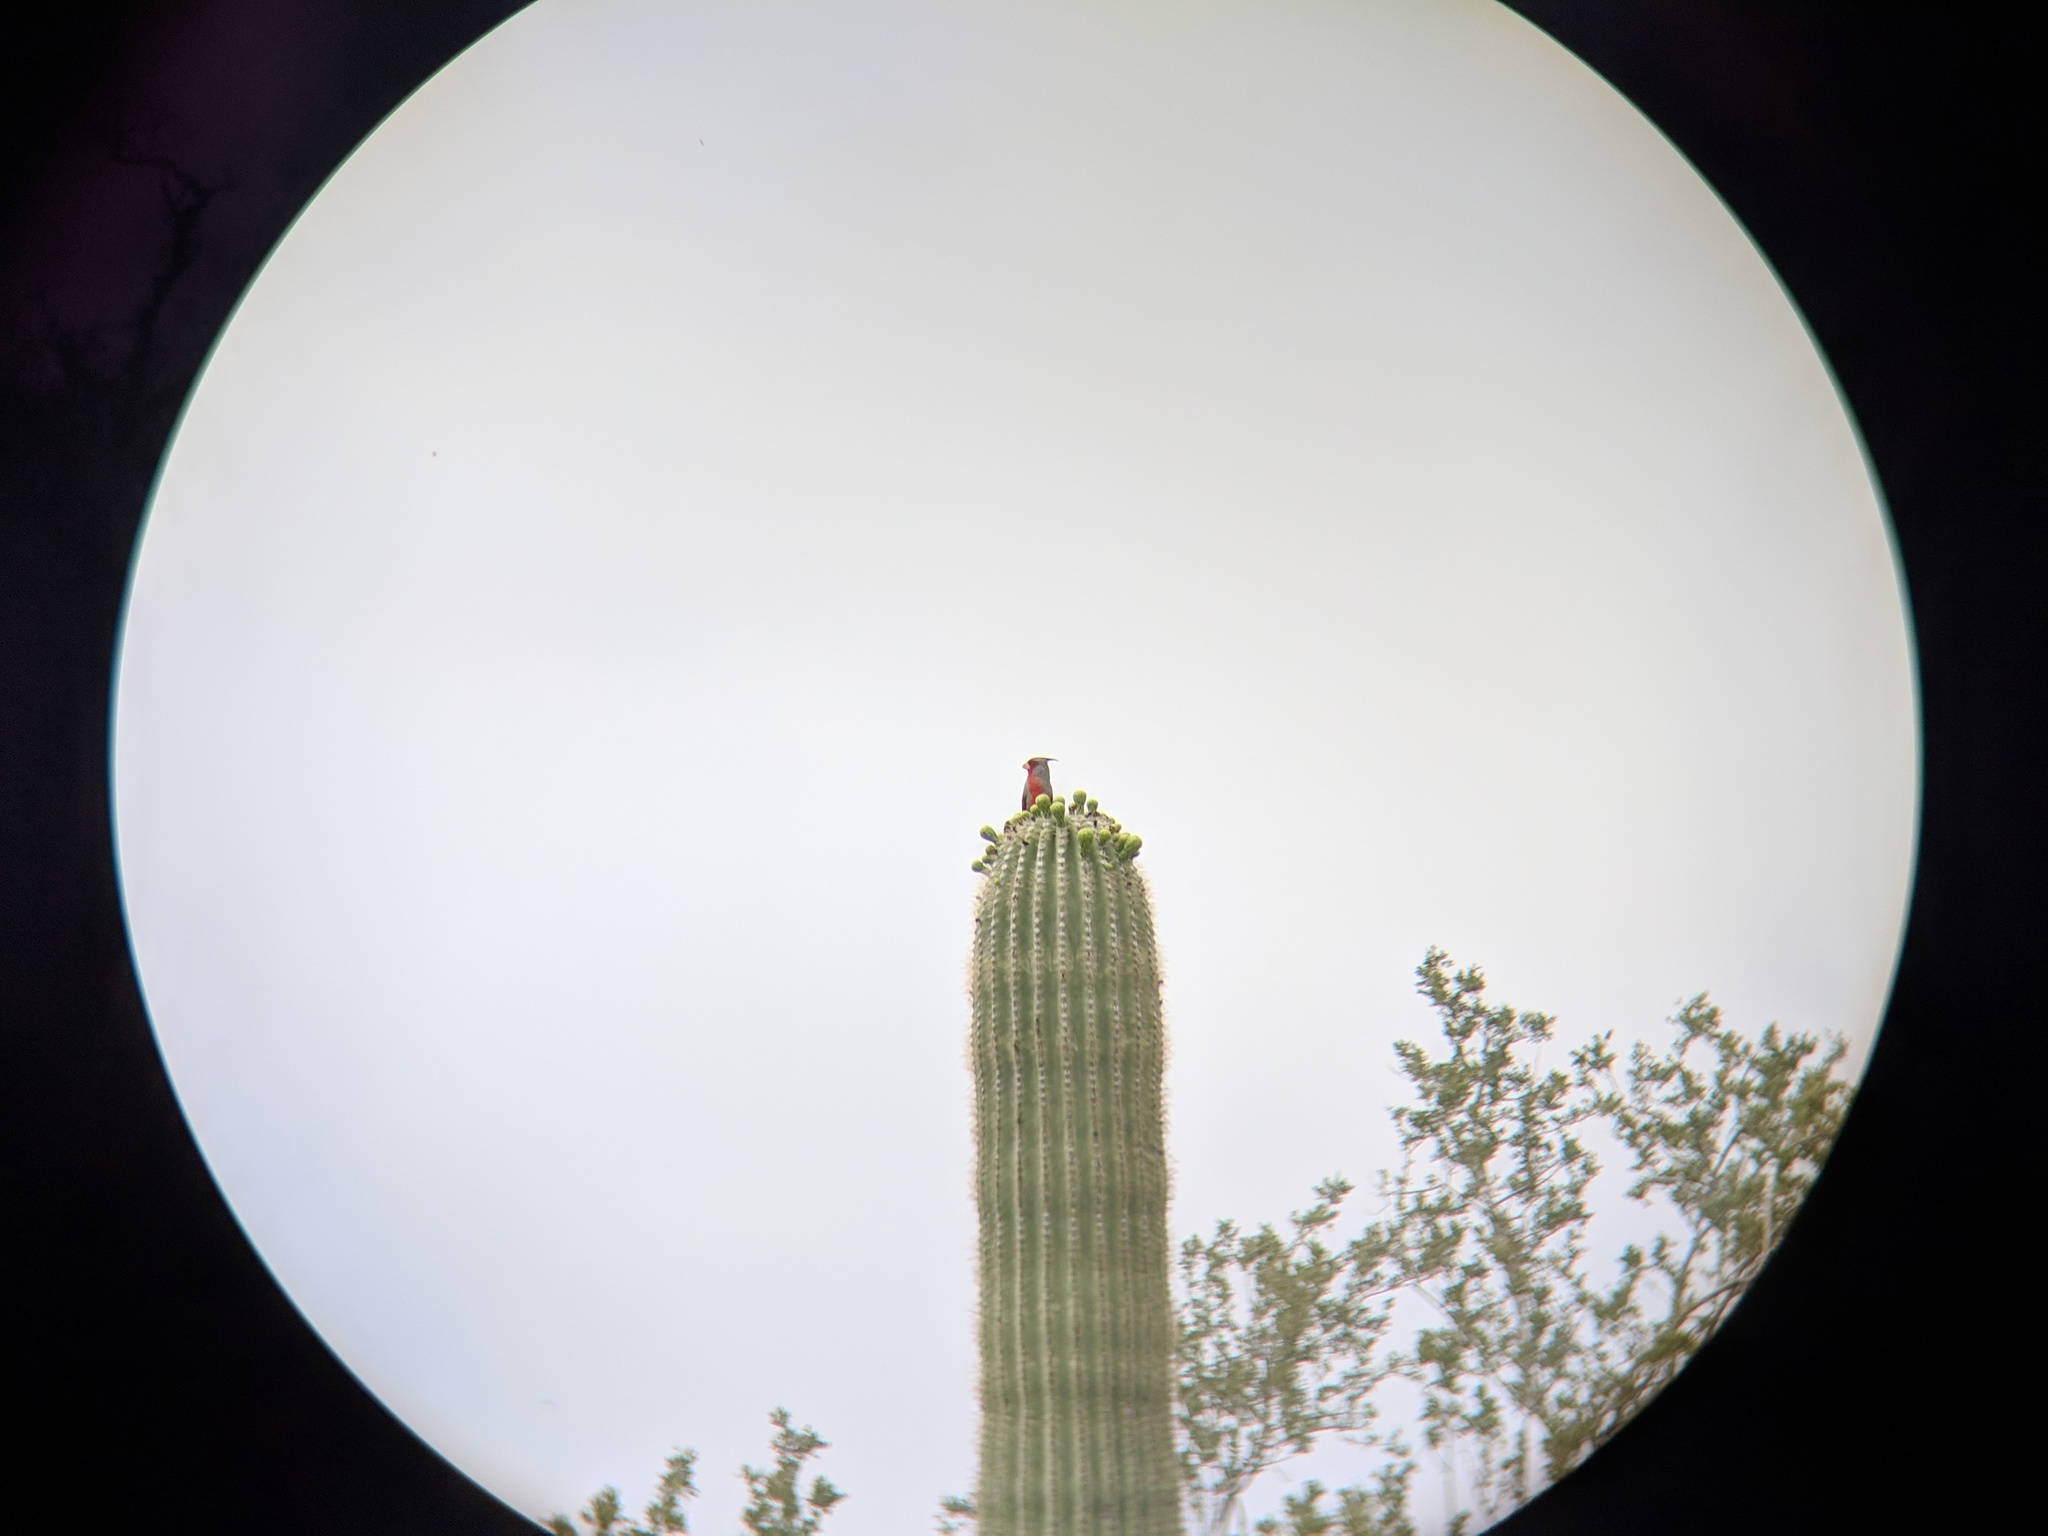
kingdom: Animalia
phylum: Chordata
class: Aves
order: Passeriformes
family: Cardinalidae
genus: Cardinalis
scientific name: Cardinalis sinuatus
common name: Pyrrhuloxia
